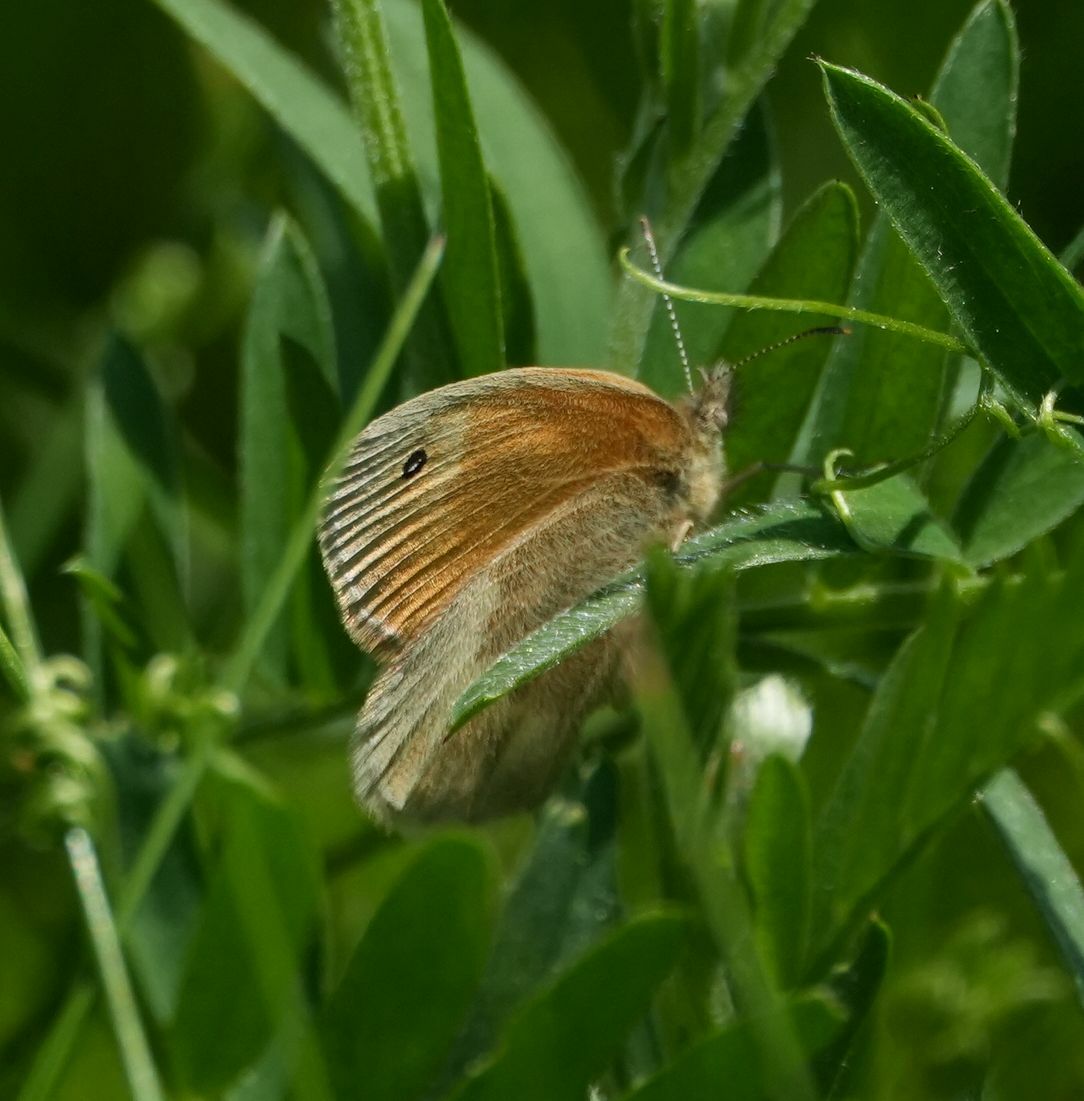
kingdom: Animalia
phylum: Arthropoda
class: Insecta
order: Lepidoptera
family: Nymphalidae
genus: Coenonympha
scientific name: Coenonympha california
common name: Common ringlet
